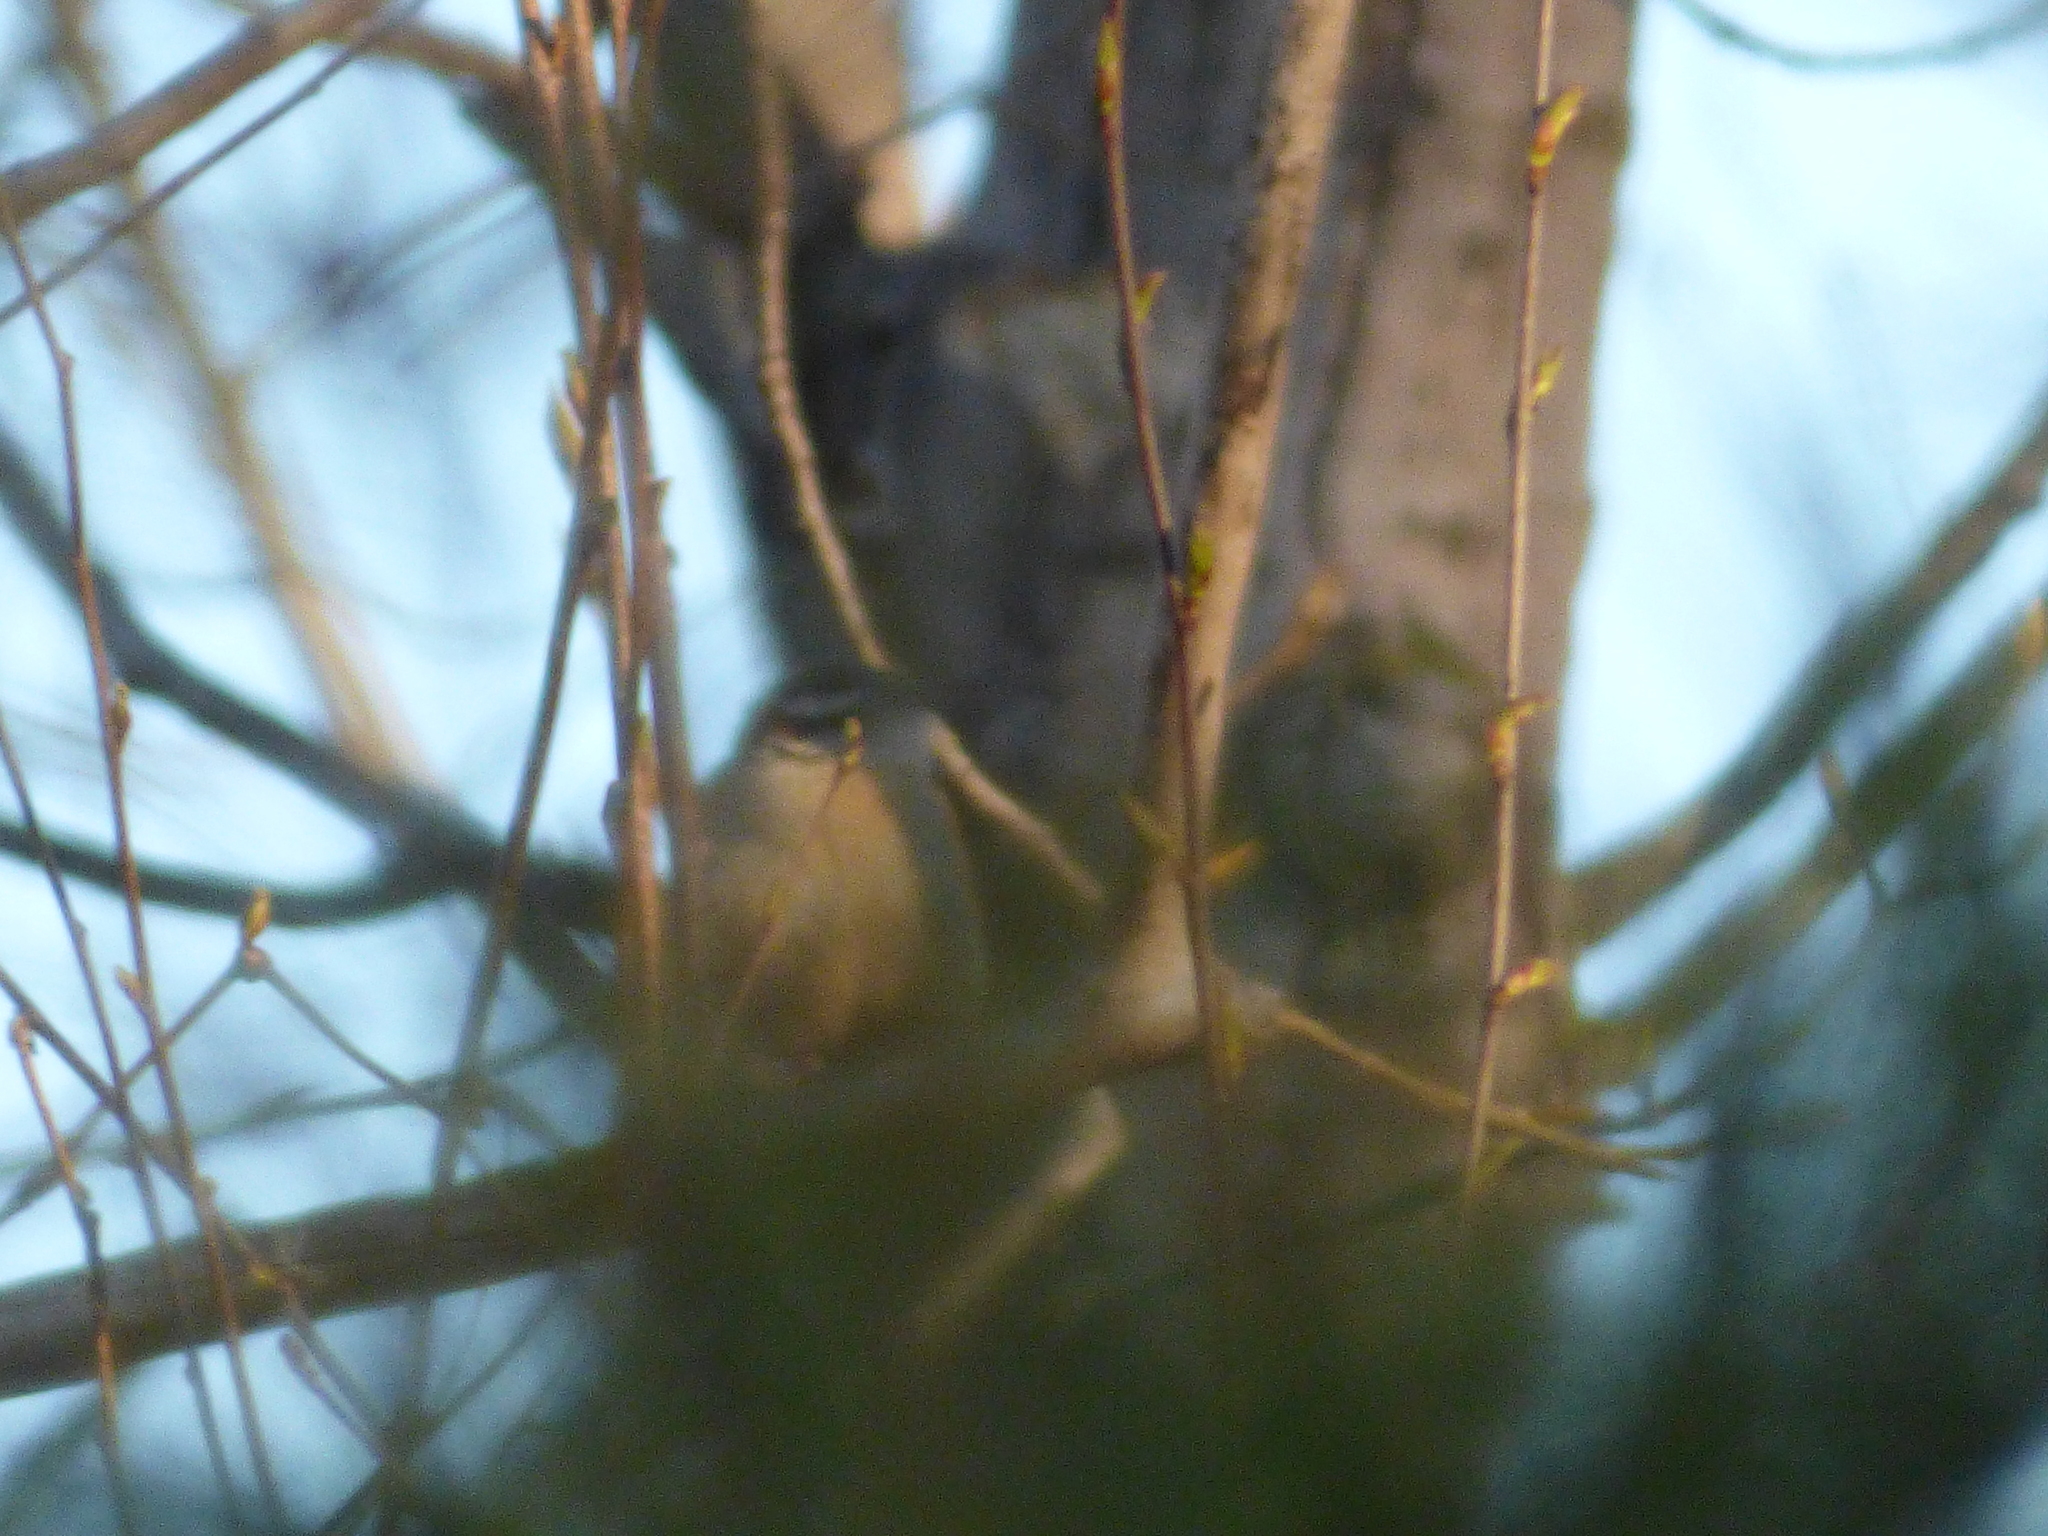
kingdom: Animalia
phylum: Chordata
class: Aves
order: Passeriformes
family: Troglodytidae
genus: Thryothorus
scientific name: Thryothorus ludovicianus
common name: Carolina wren
